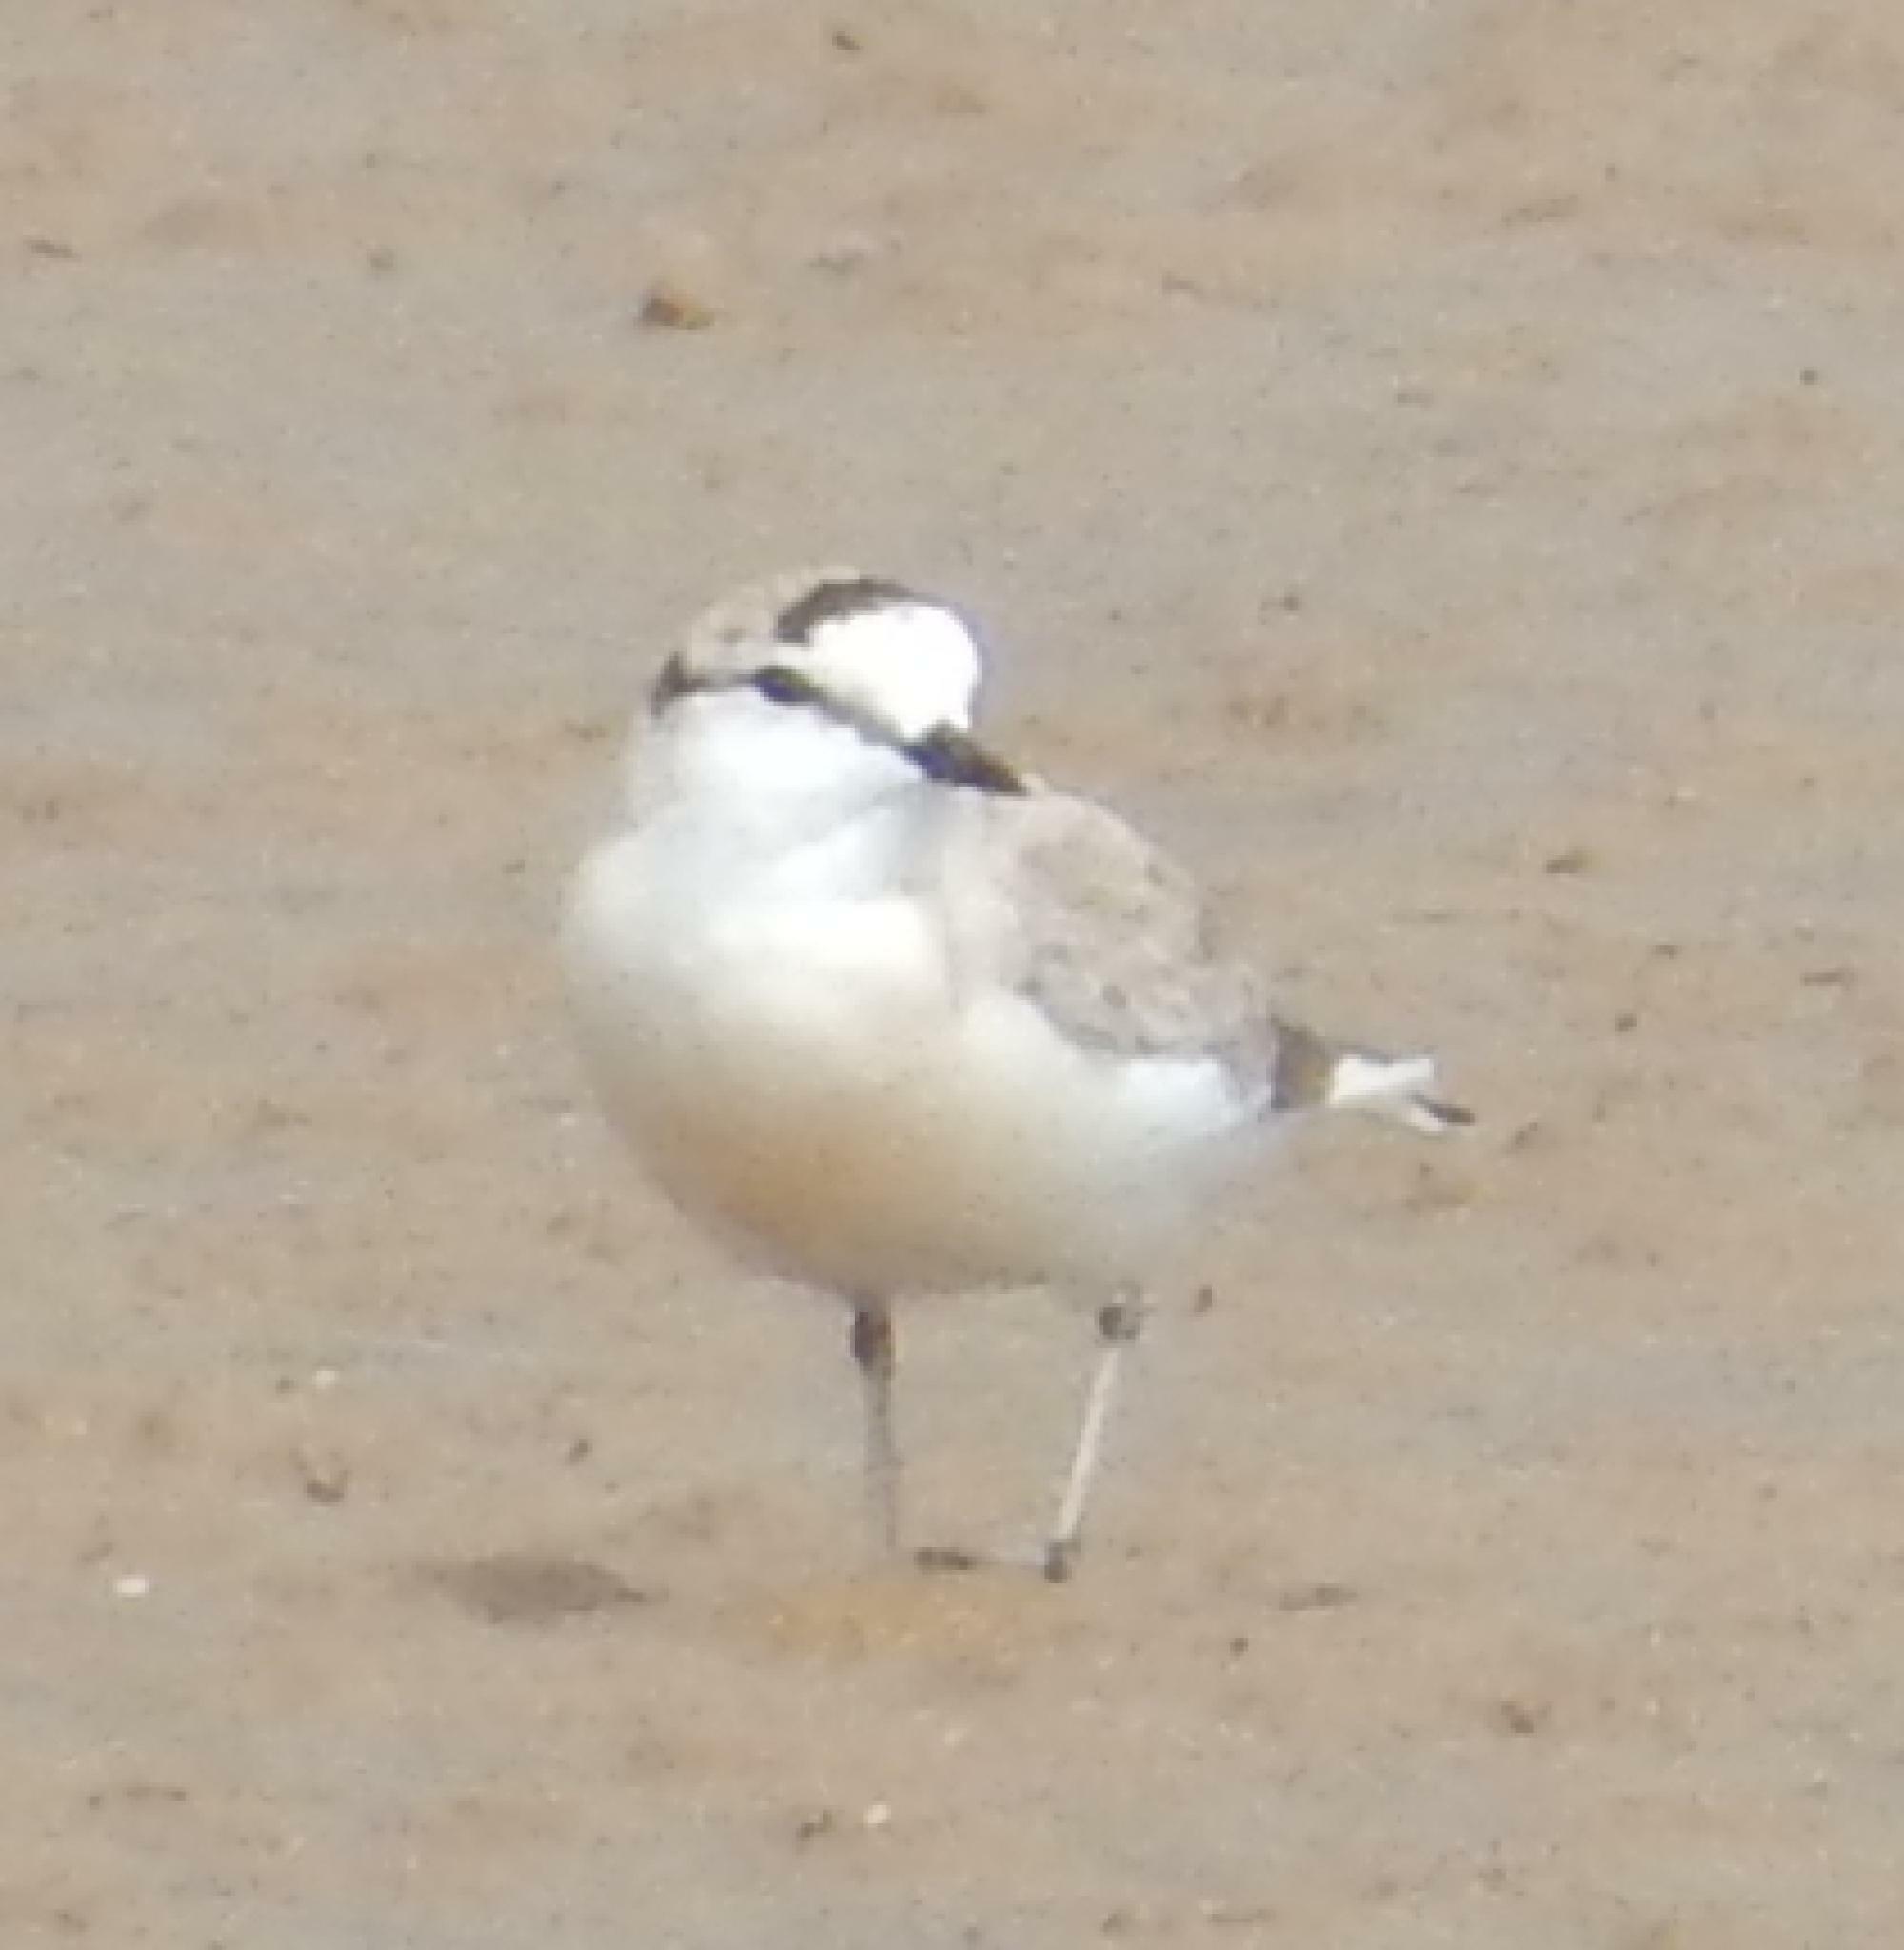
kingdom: Animalia
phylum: Chordata
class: Aves
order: Charadriiformes
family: Charadriidae
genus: Anarhynchus
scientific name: Anarhynchus
